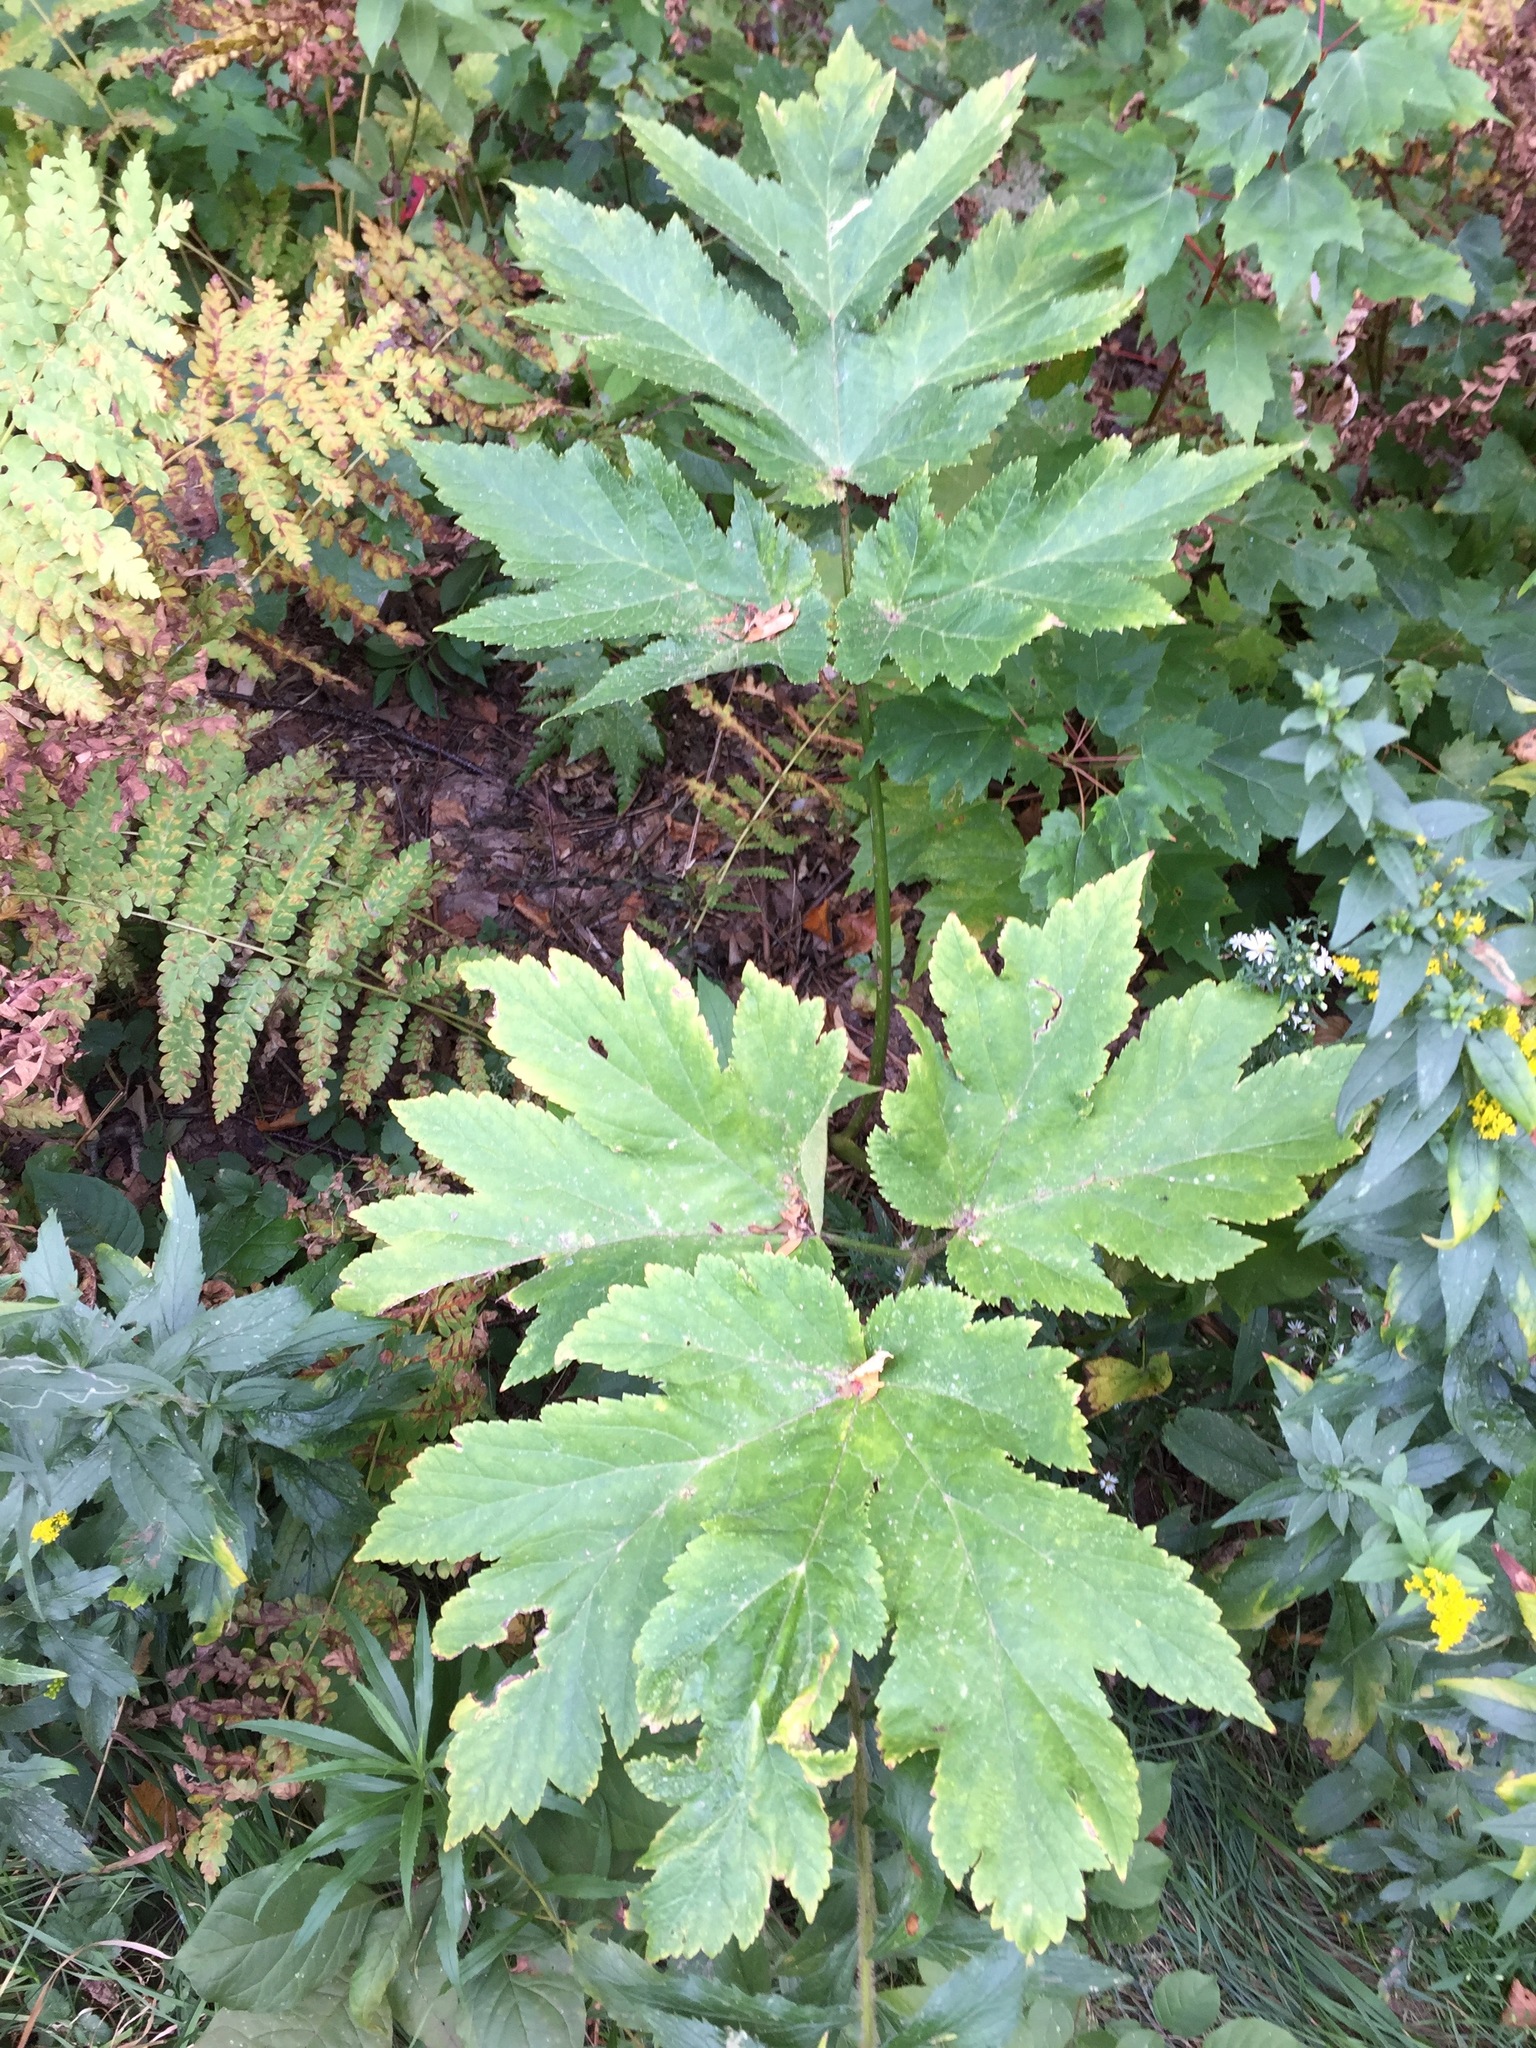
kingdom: Plantae
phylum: Tracheophyta
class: Magnoliopsida
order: Apiales
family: Apiaceae
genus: Heracleum
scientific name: Heracleum maximum
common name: American cow parsnip
